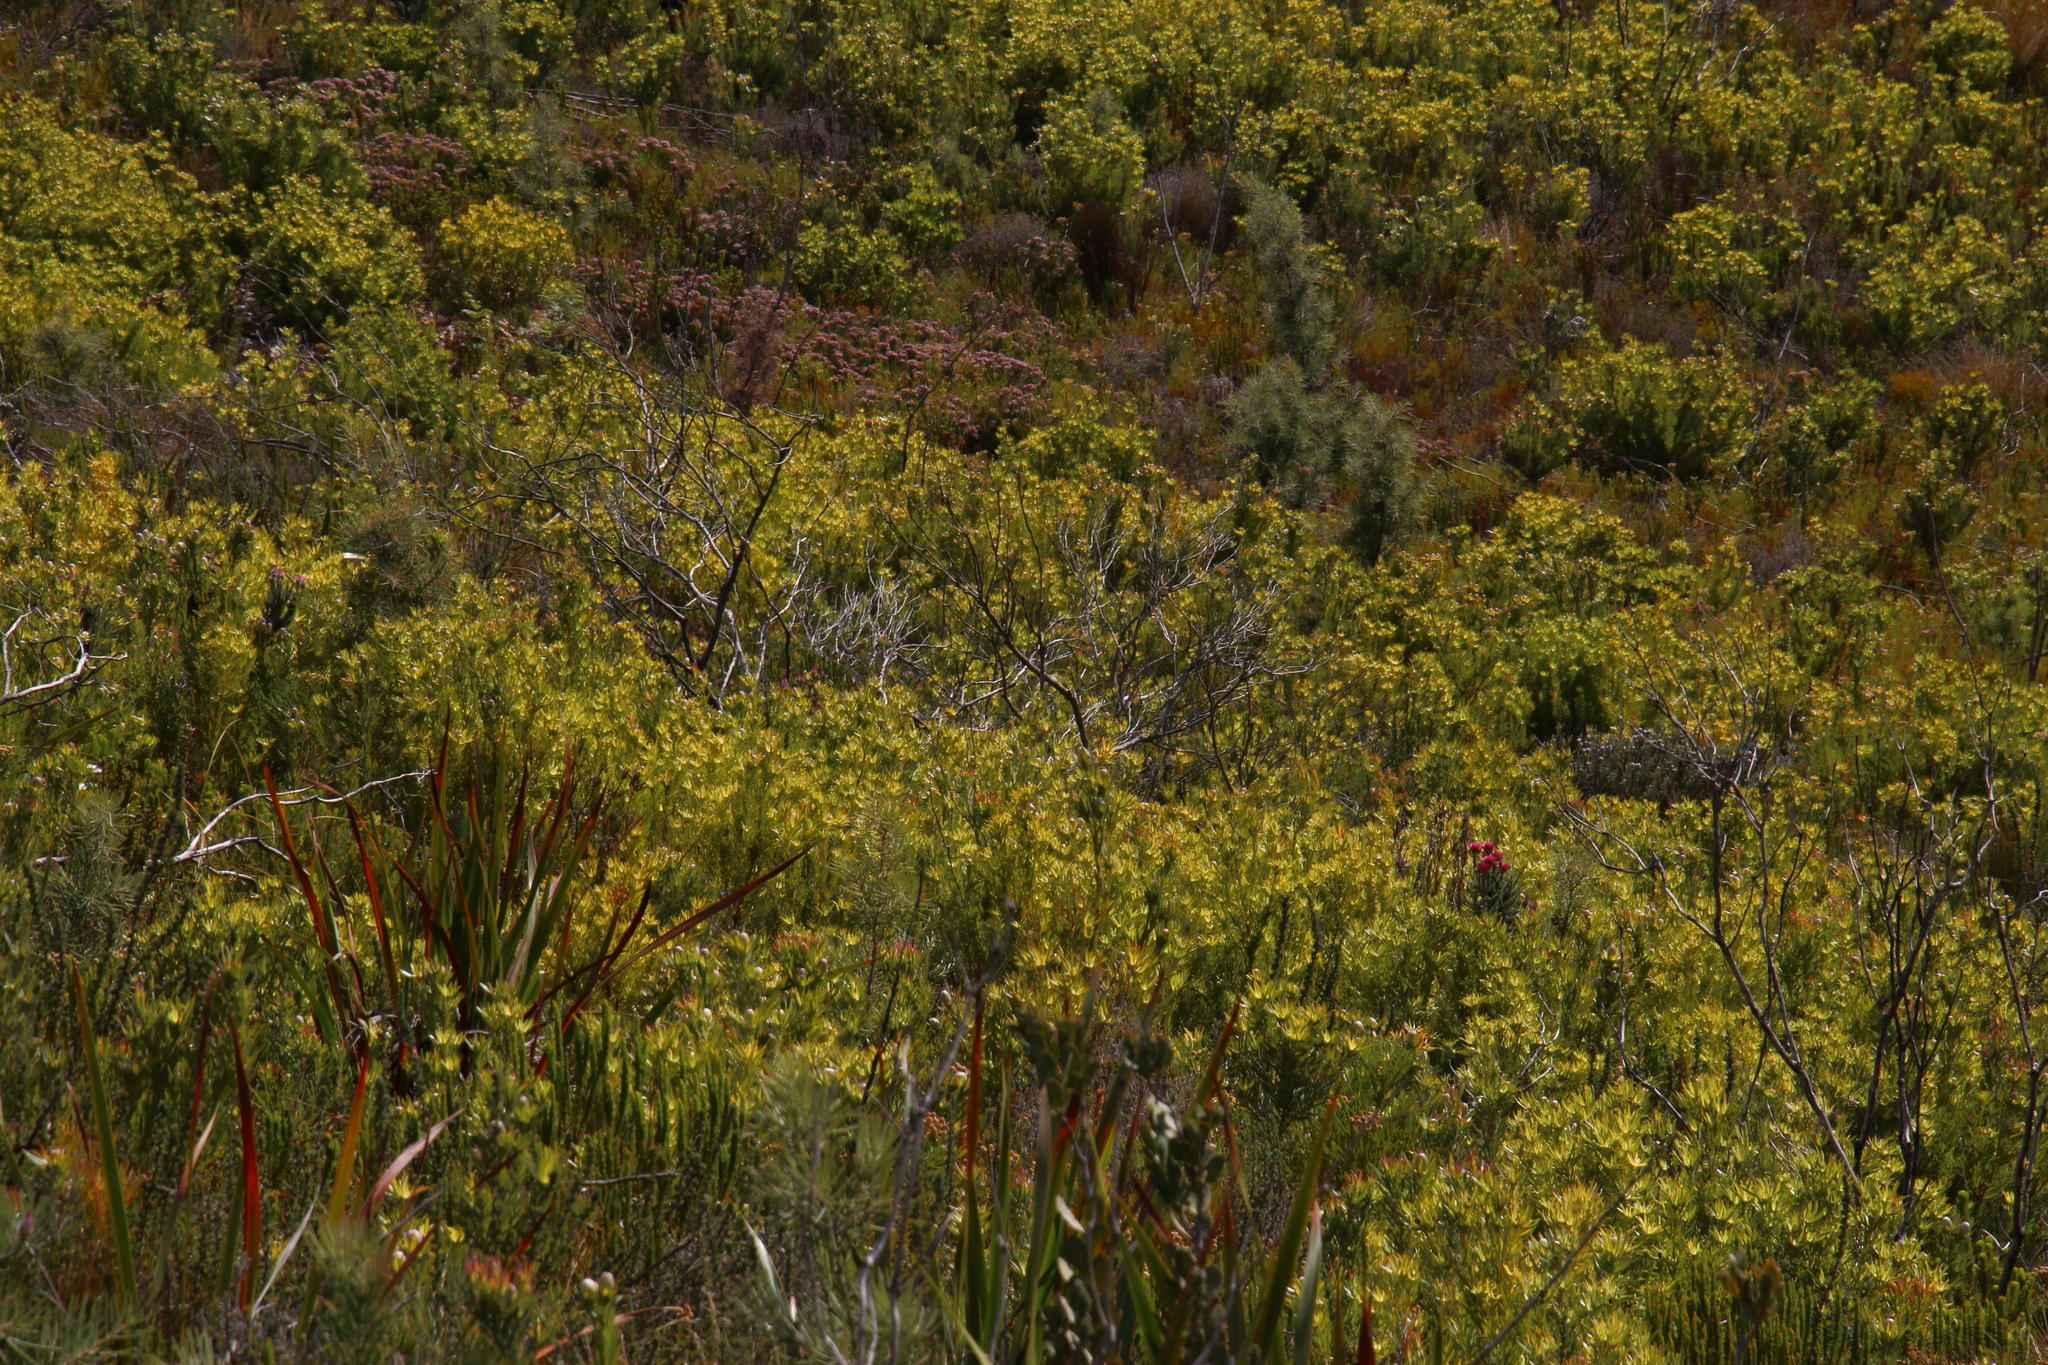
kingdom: Plantae
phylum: Tracheophyta
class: Magnoliopsida
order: Proteales
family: Proteaceae
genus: Leucadendron
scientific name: Leucadendron xanthoconus
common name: Sickle-leaf conebush
